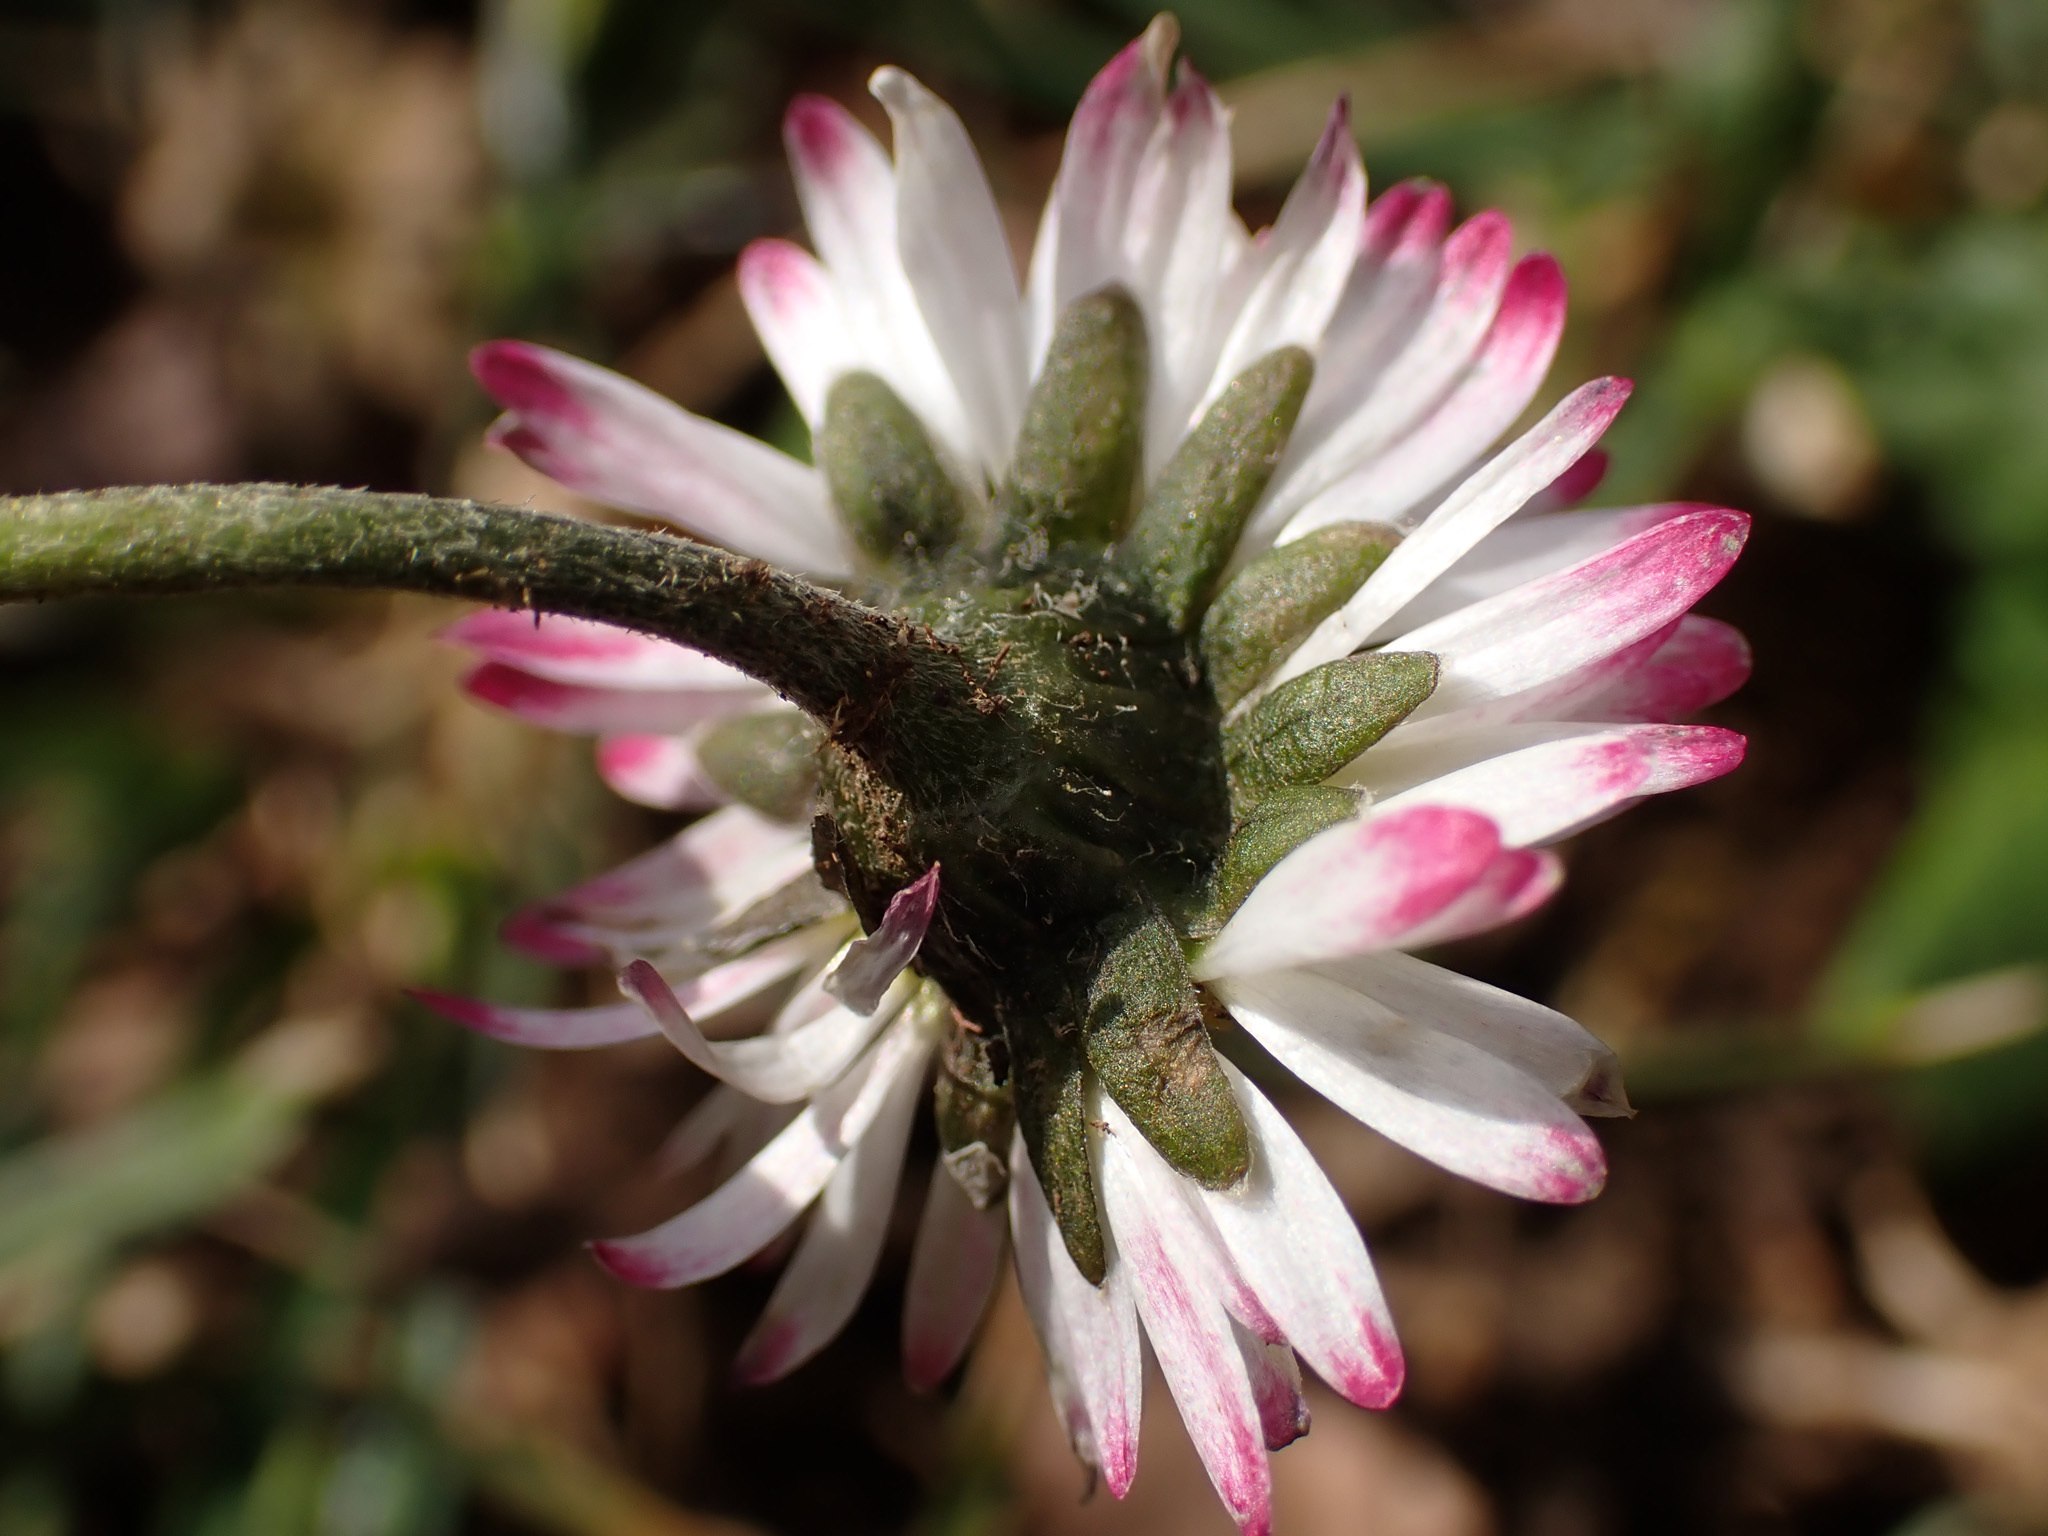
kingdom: Plantae
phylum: Tracheophyta
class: Magnoliopsida
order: Asterales
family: Asteraceae
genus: Bellis
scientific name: Bellis perennis
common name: Lawndaisy
